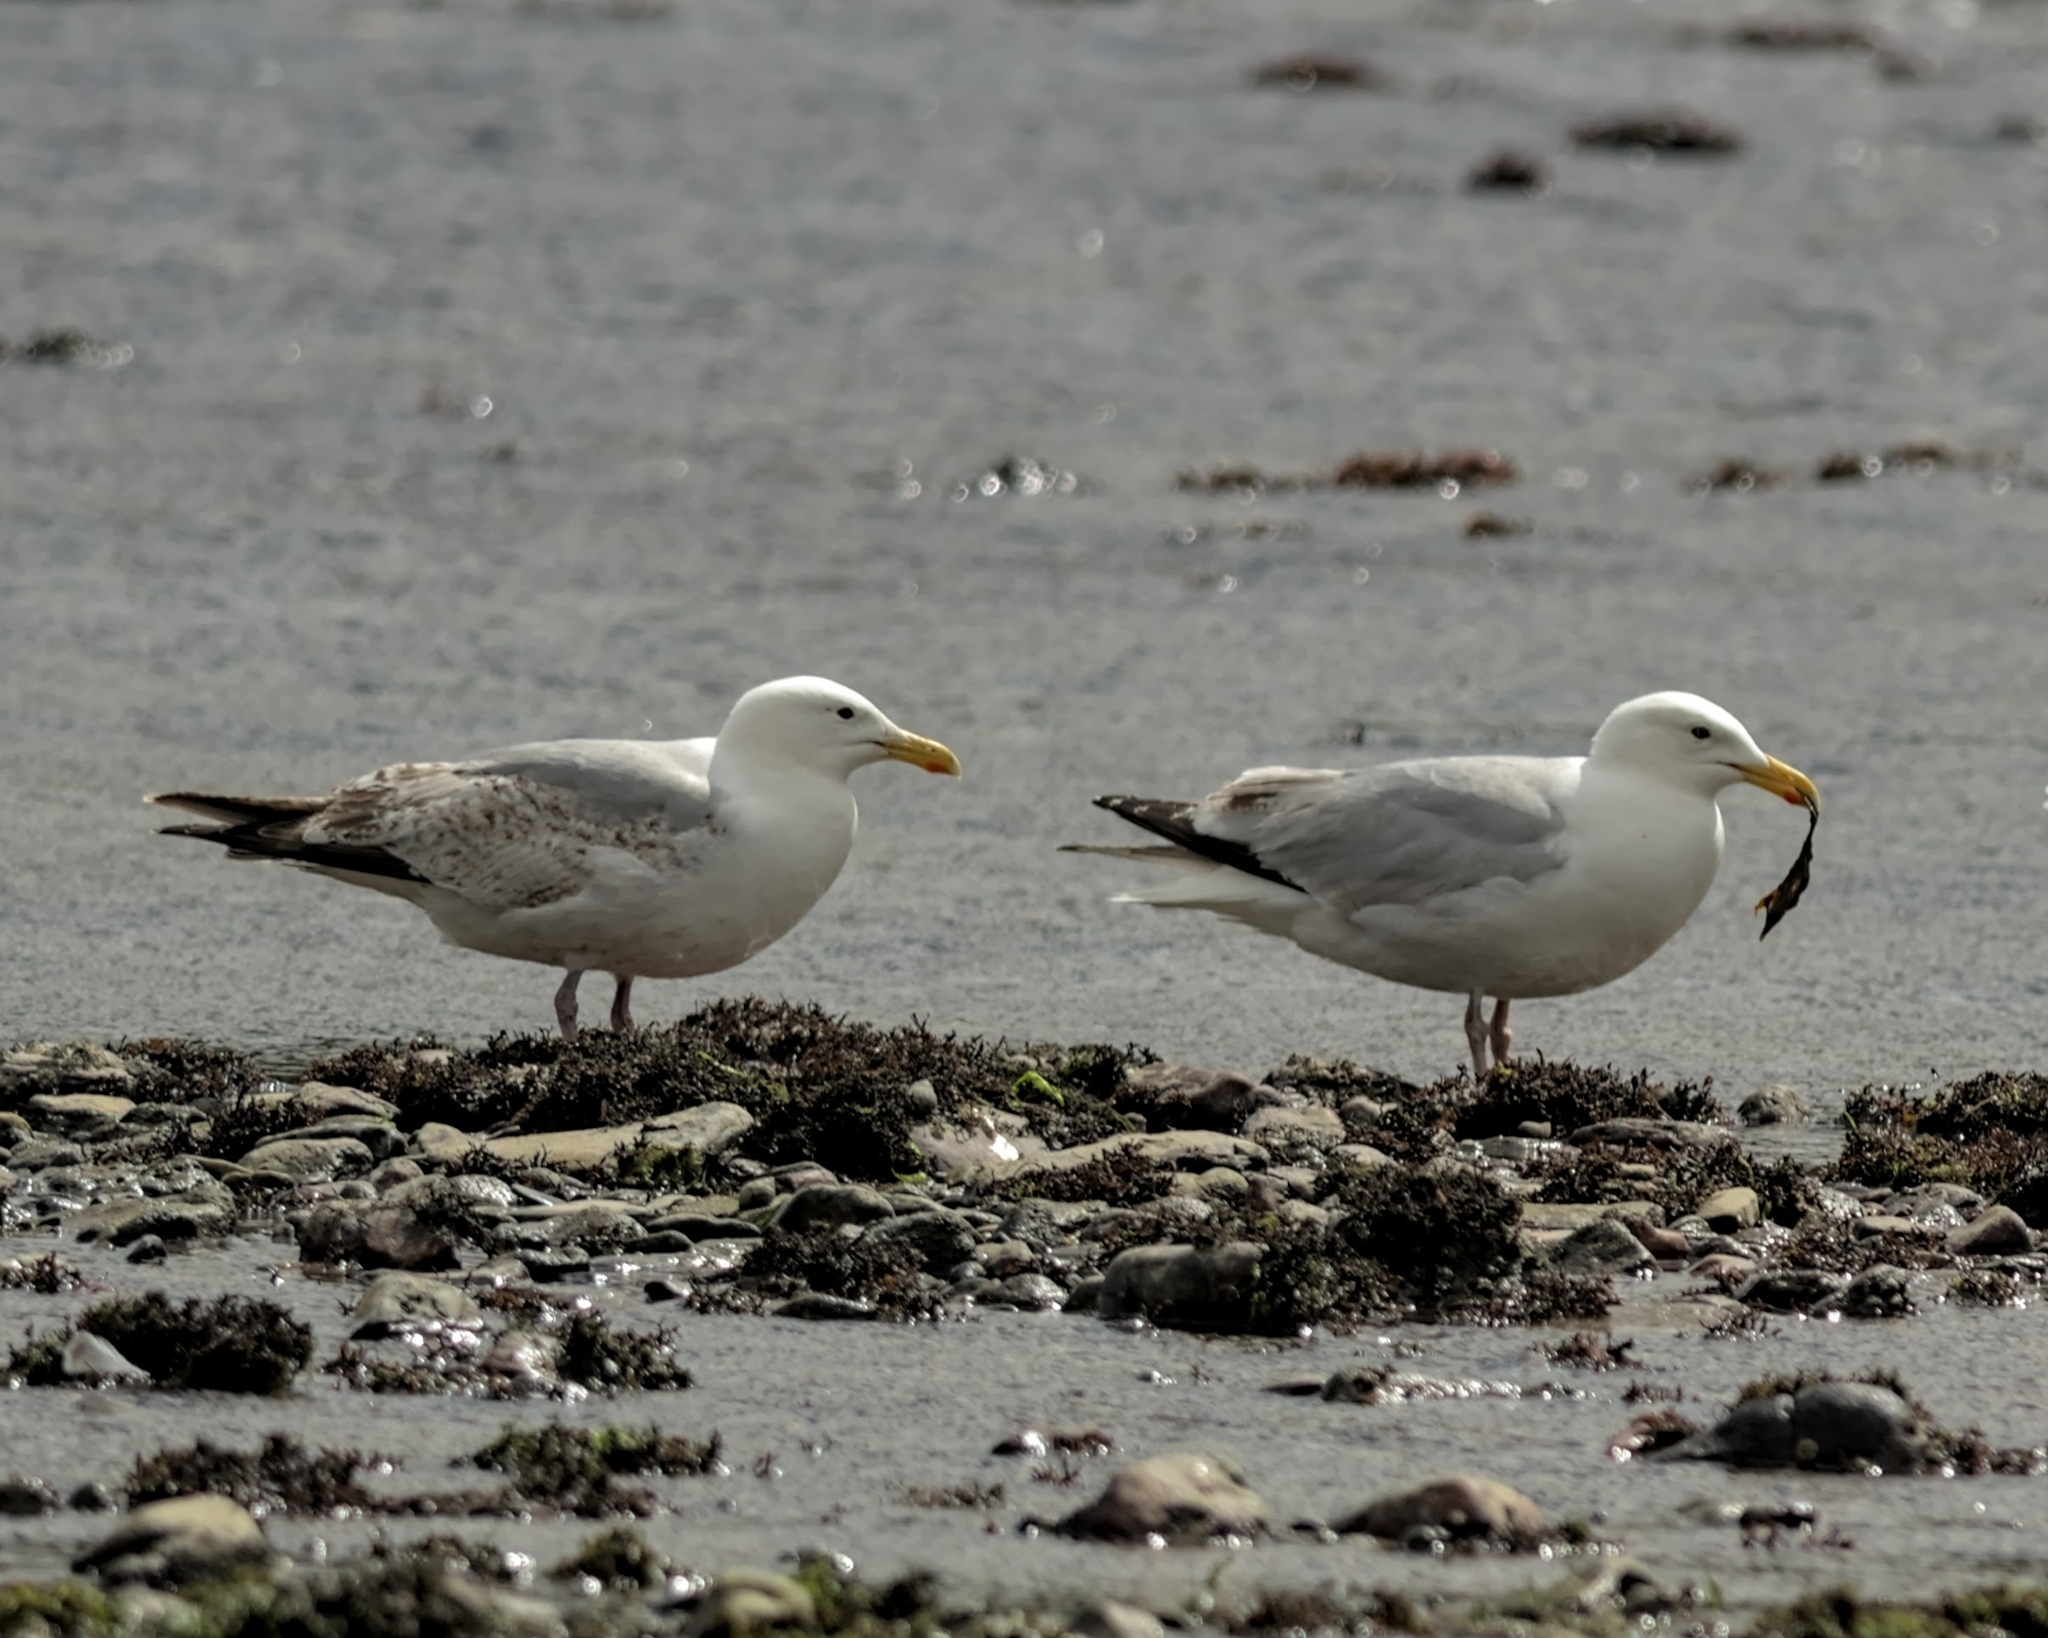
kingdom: Animalia
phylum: Chordata
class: Aves
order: Charadriiformes
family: Laridae
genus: Larus
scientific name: Larus argentatus
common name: Herring gull
